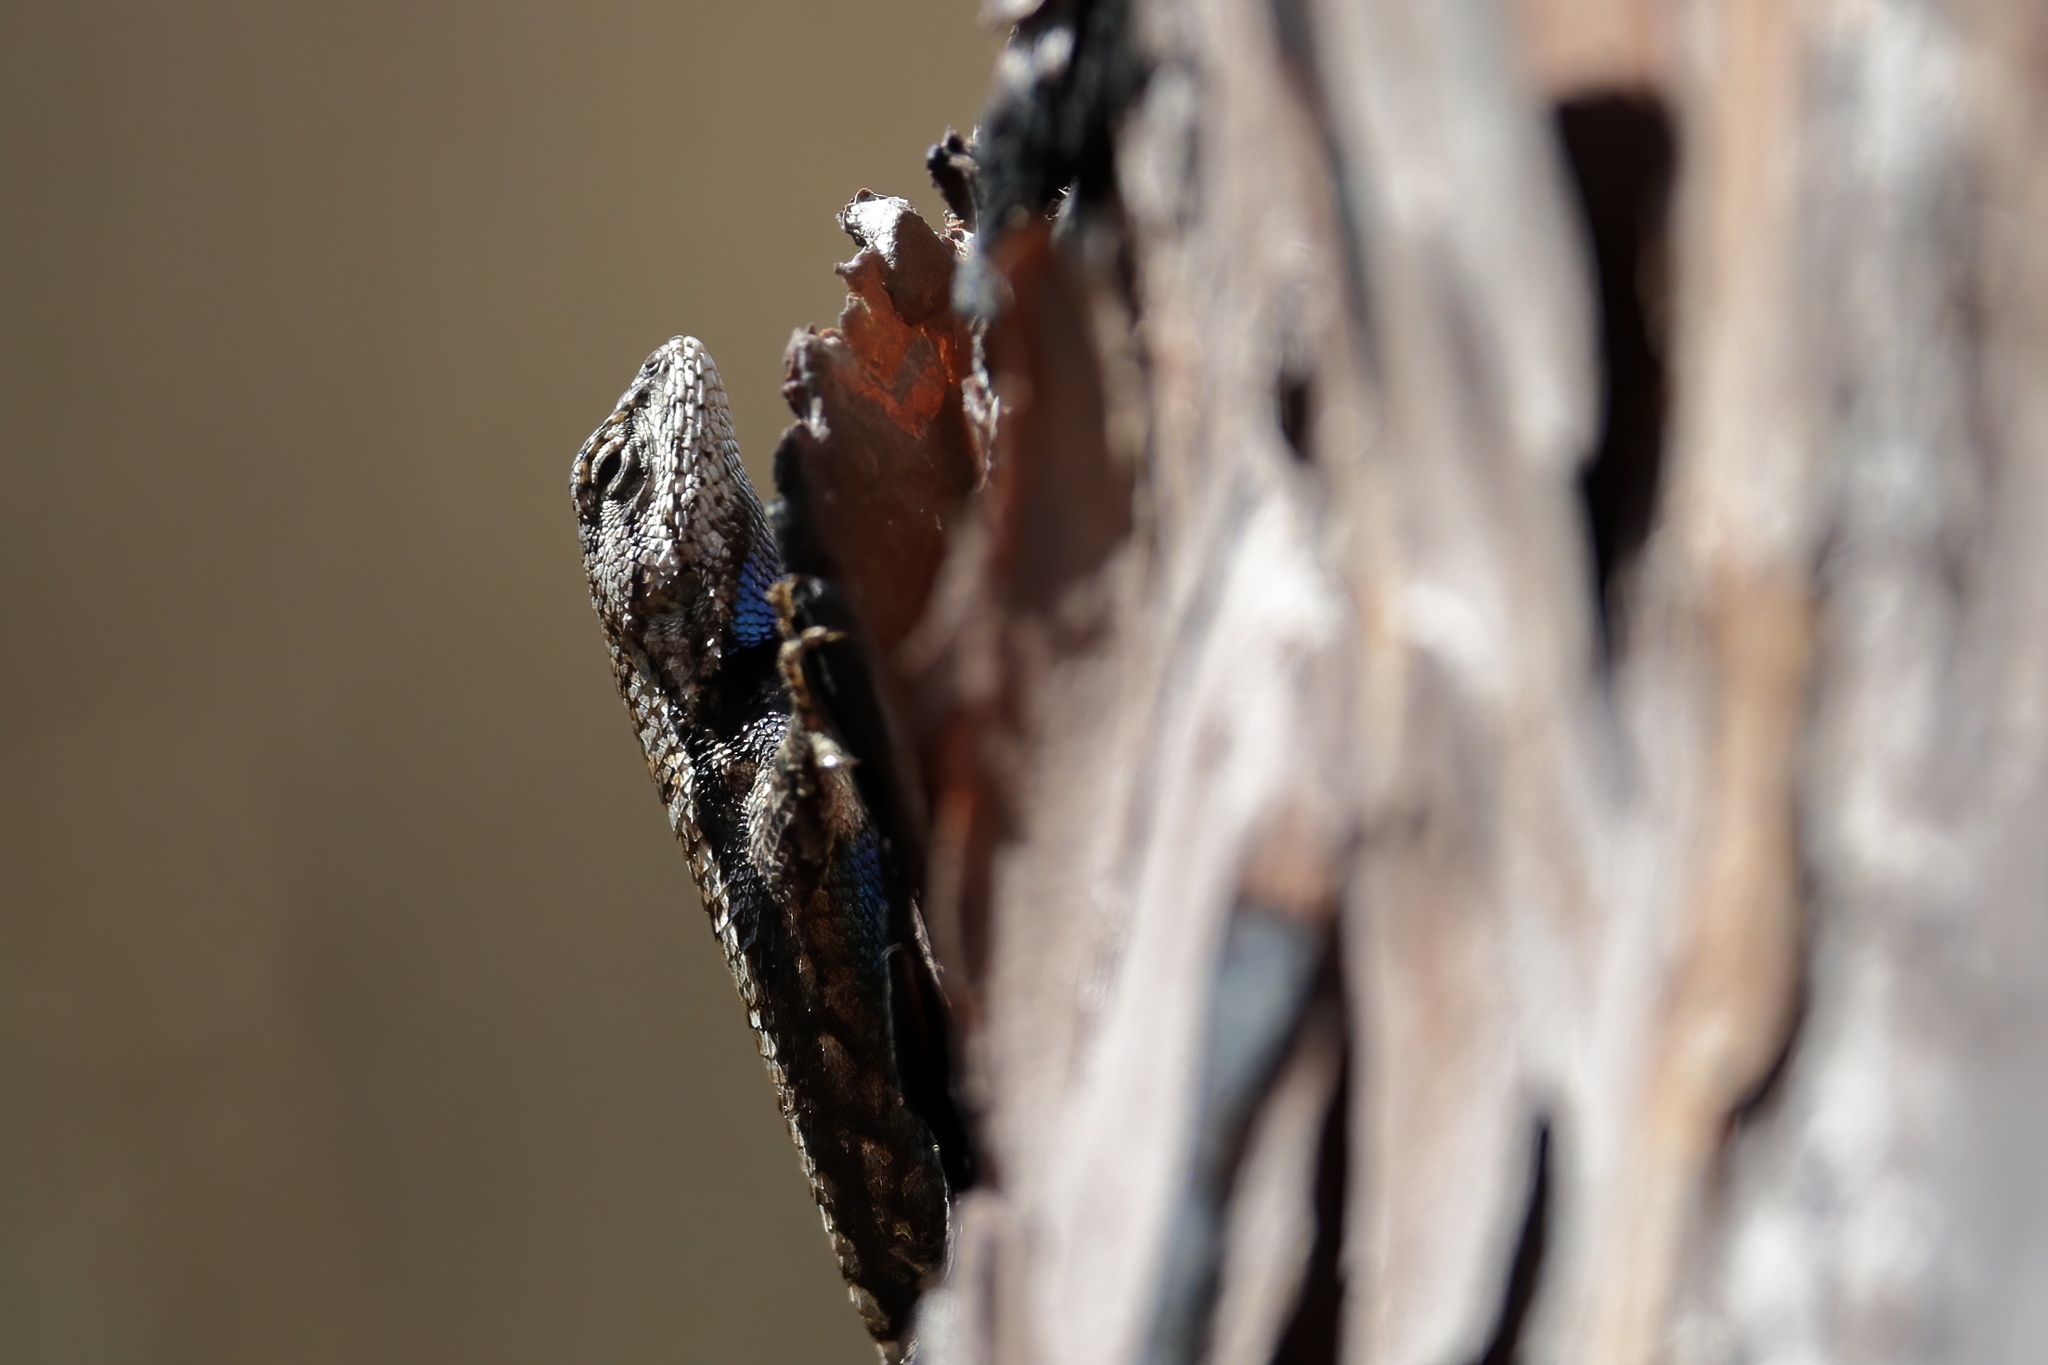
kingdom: Animalia
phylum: Chordata
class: Squamata
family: Phrynosomatidae
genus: Sceloporus
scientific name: Sceloporus undulatus
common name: Eastern fence lizard
